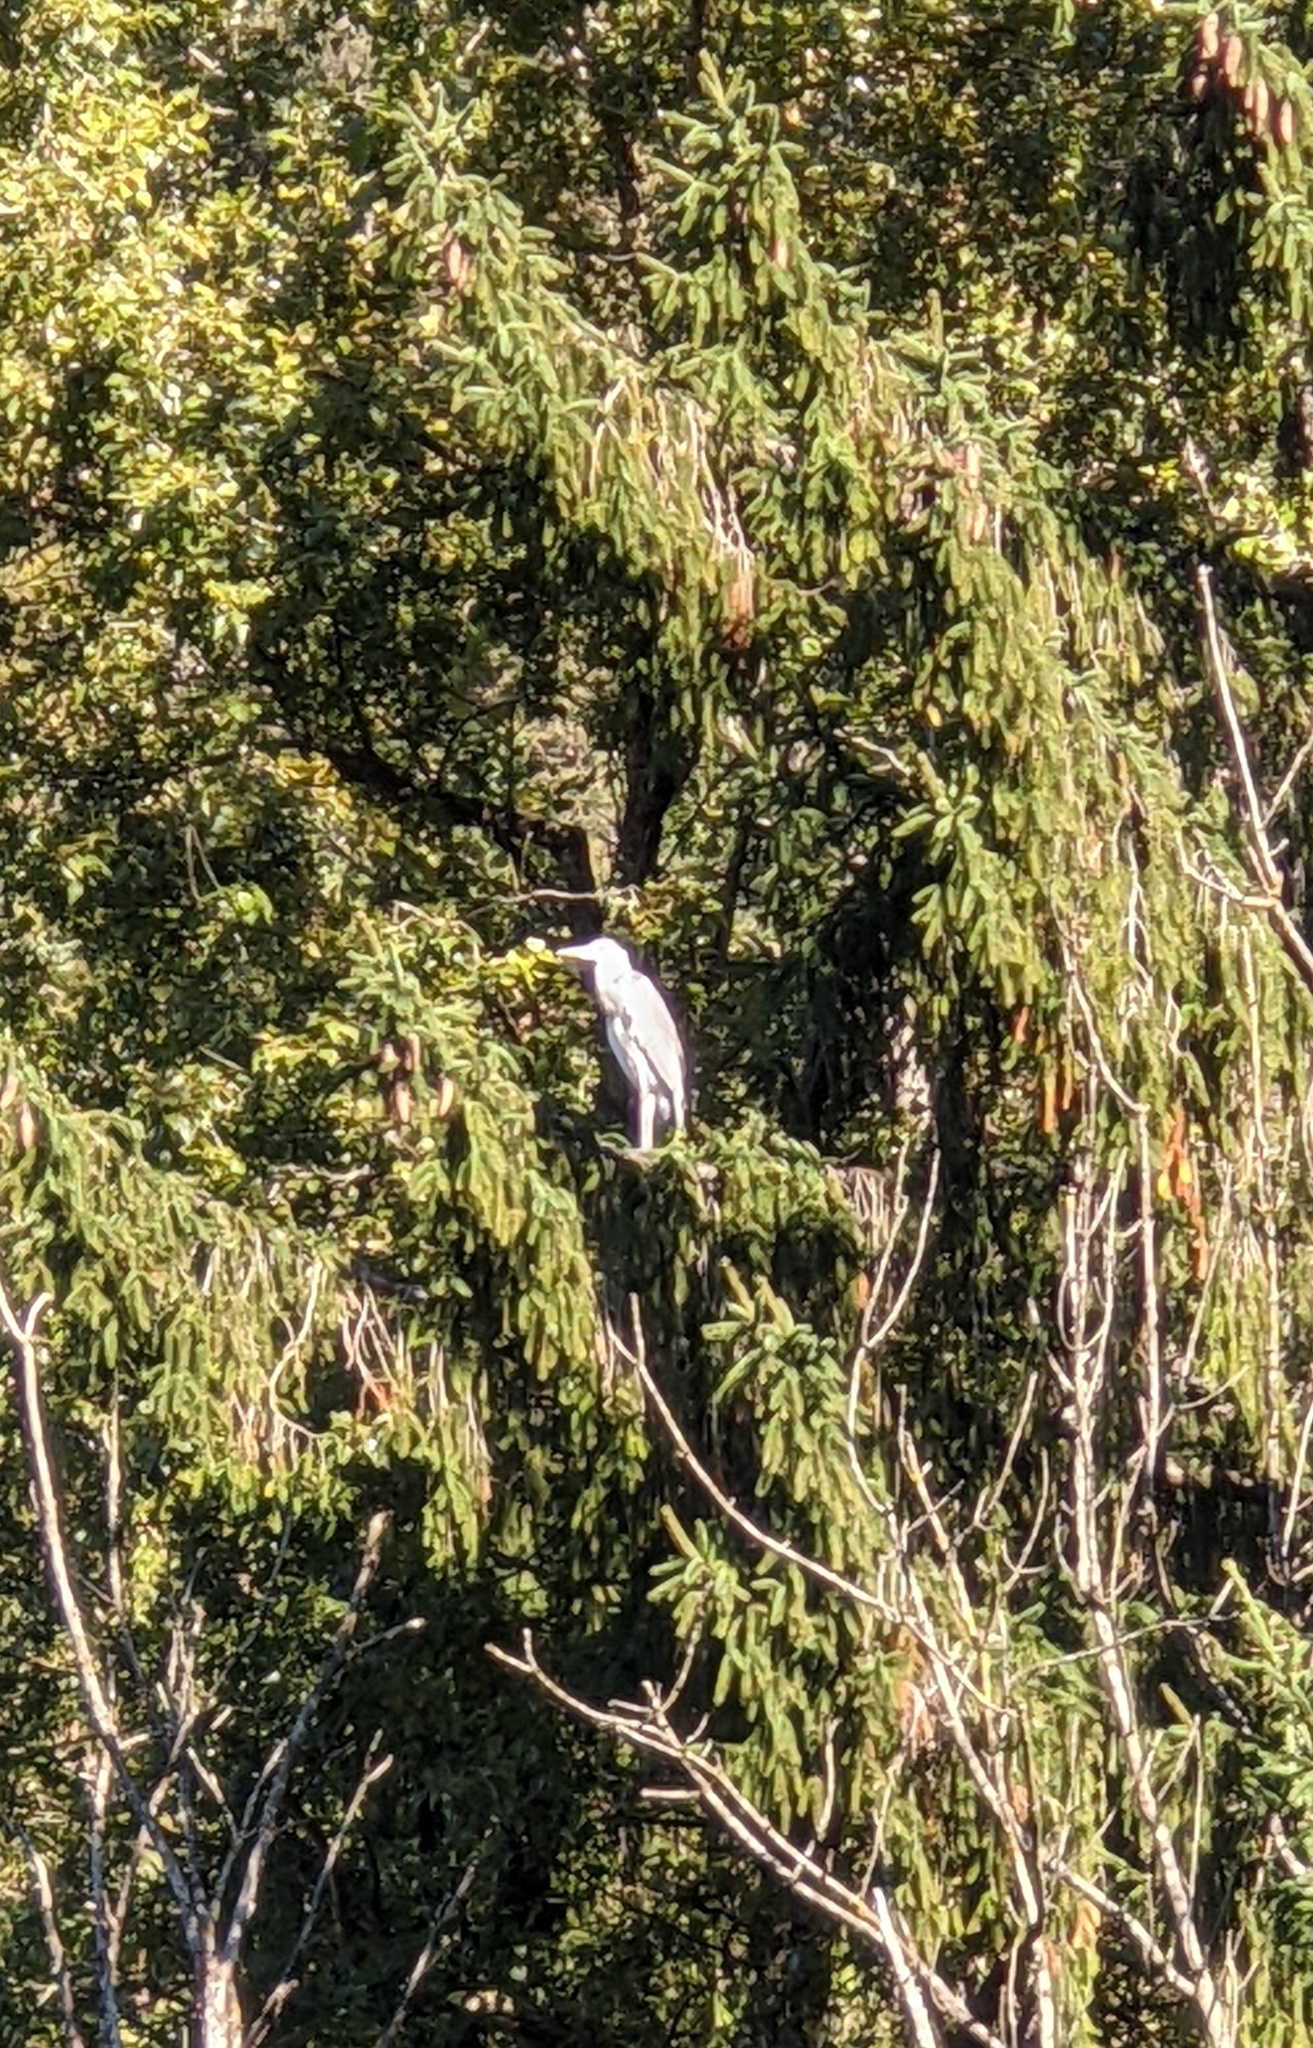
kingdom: Animalia
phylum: Chordata
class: Aves
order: Pelecaniformes
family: Ardeidae
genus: Ardea
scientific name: Ardea cinerea
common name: Grey heron
